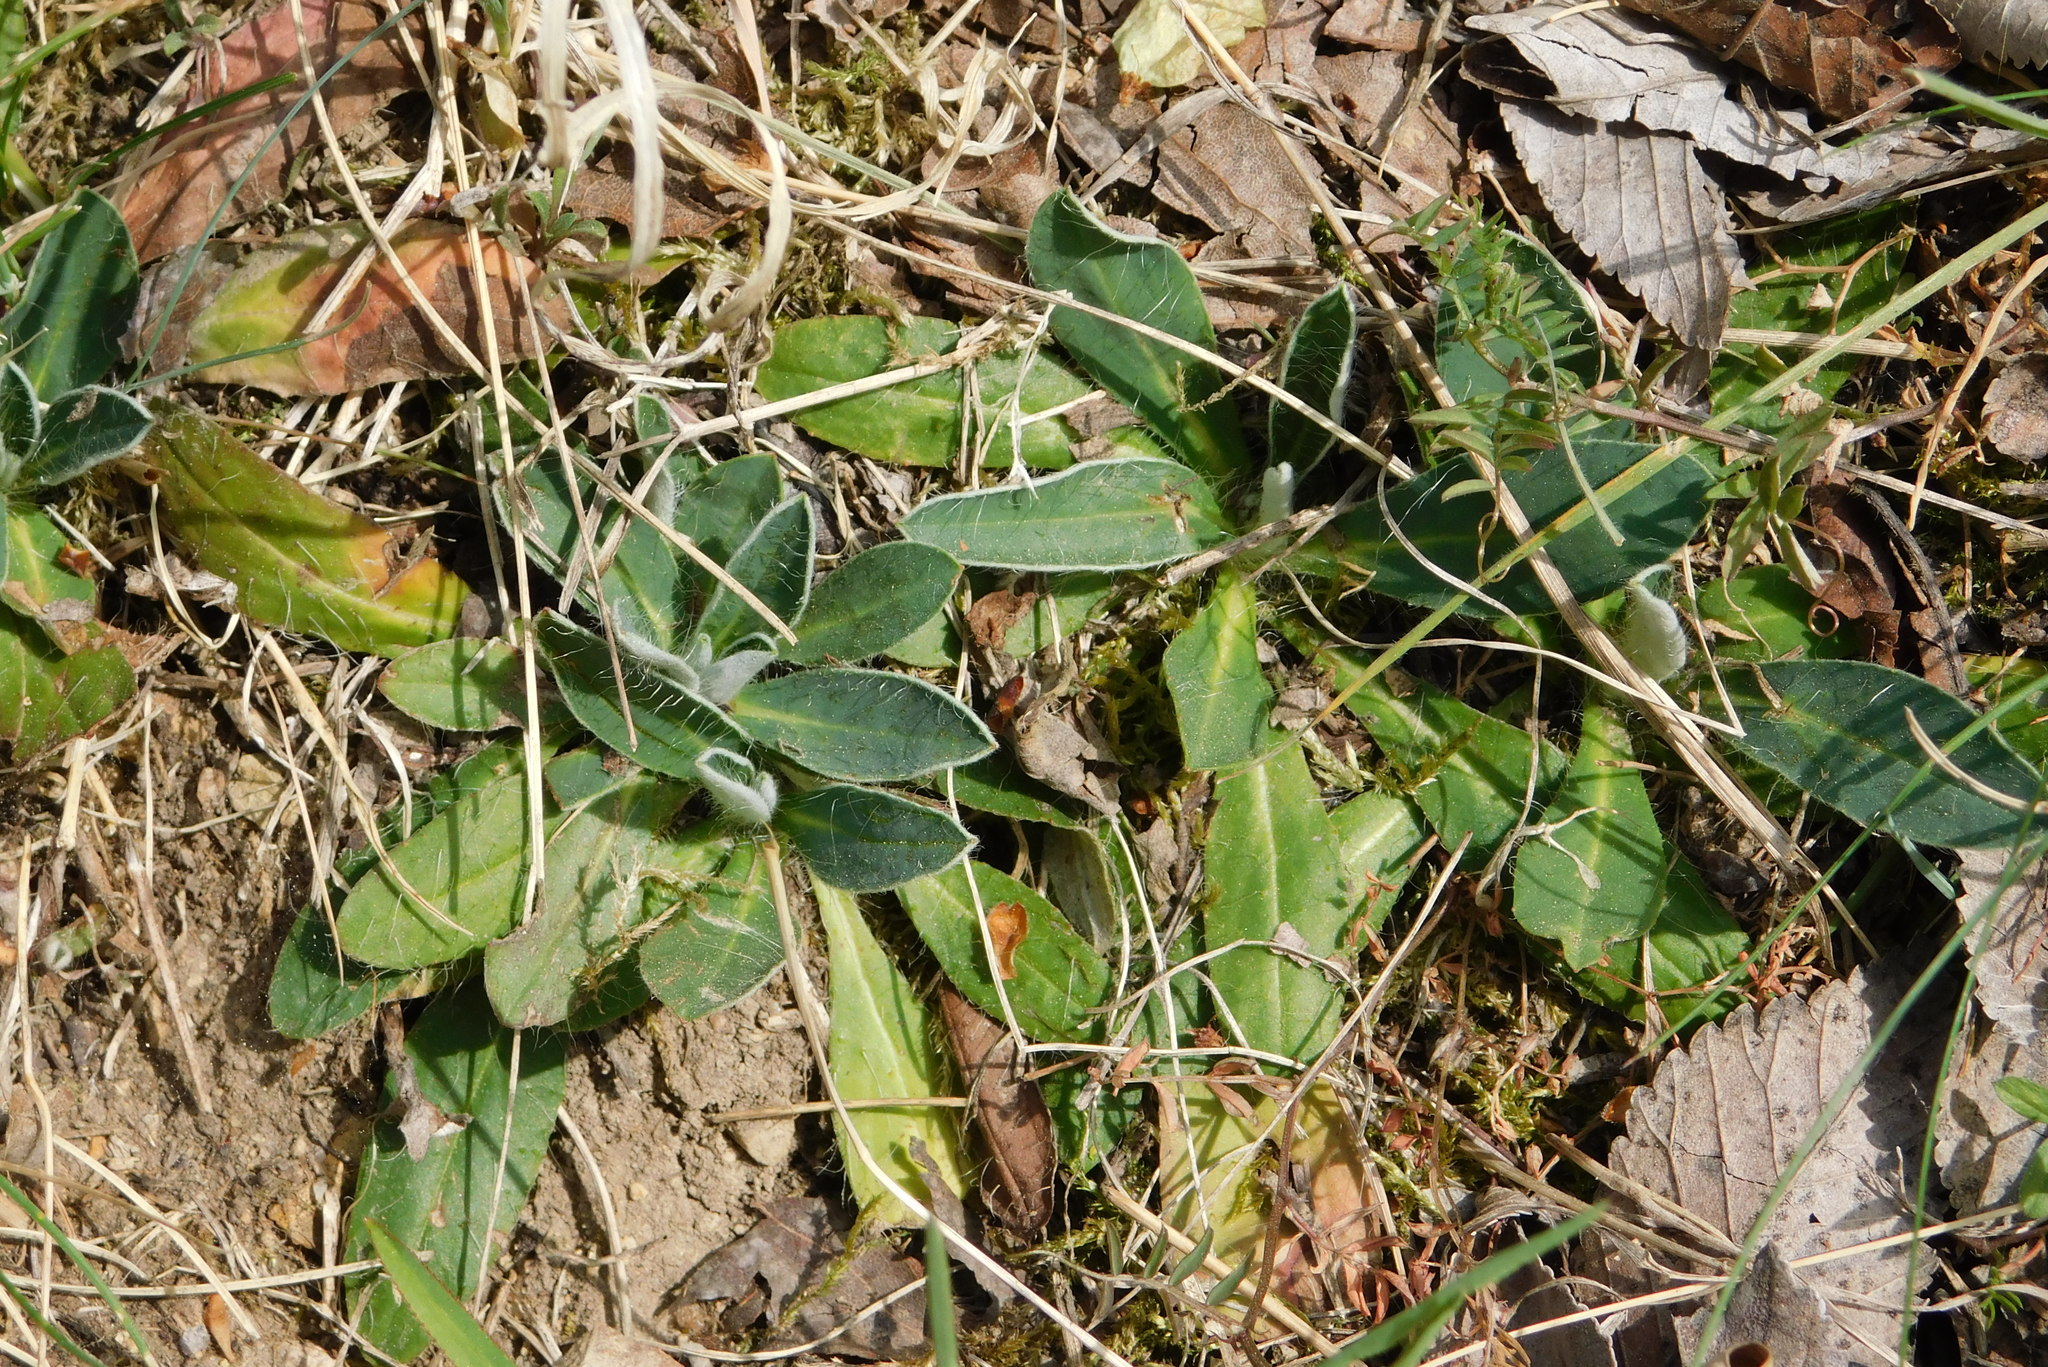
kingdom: Plantae
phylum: Tracheophyta
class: Magnoliopsida
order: Asterales
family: Asteraceae
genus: Pilosella
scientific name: Pilosella officinarum
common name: Mouse-ear hawkweed
